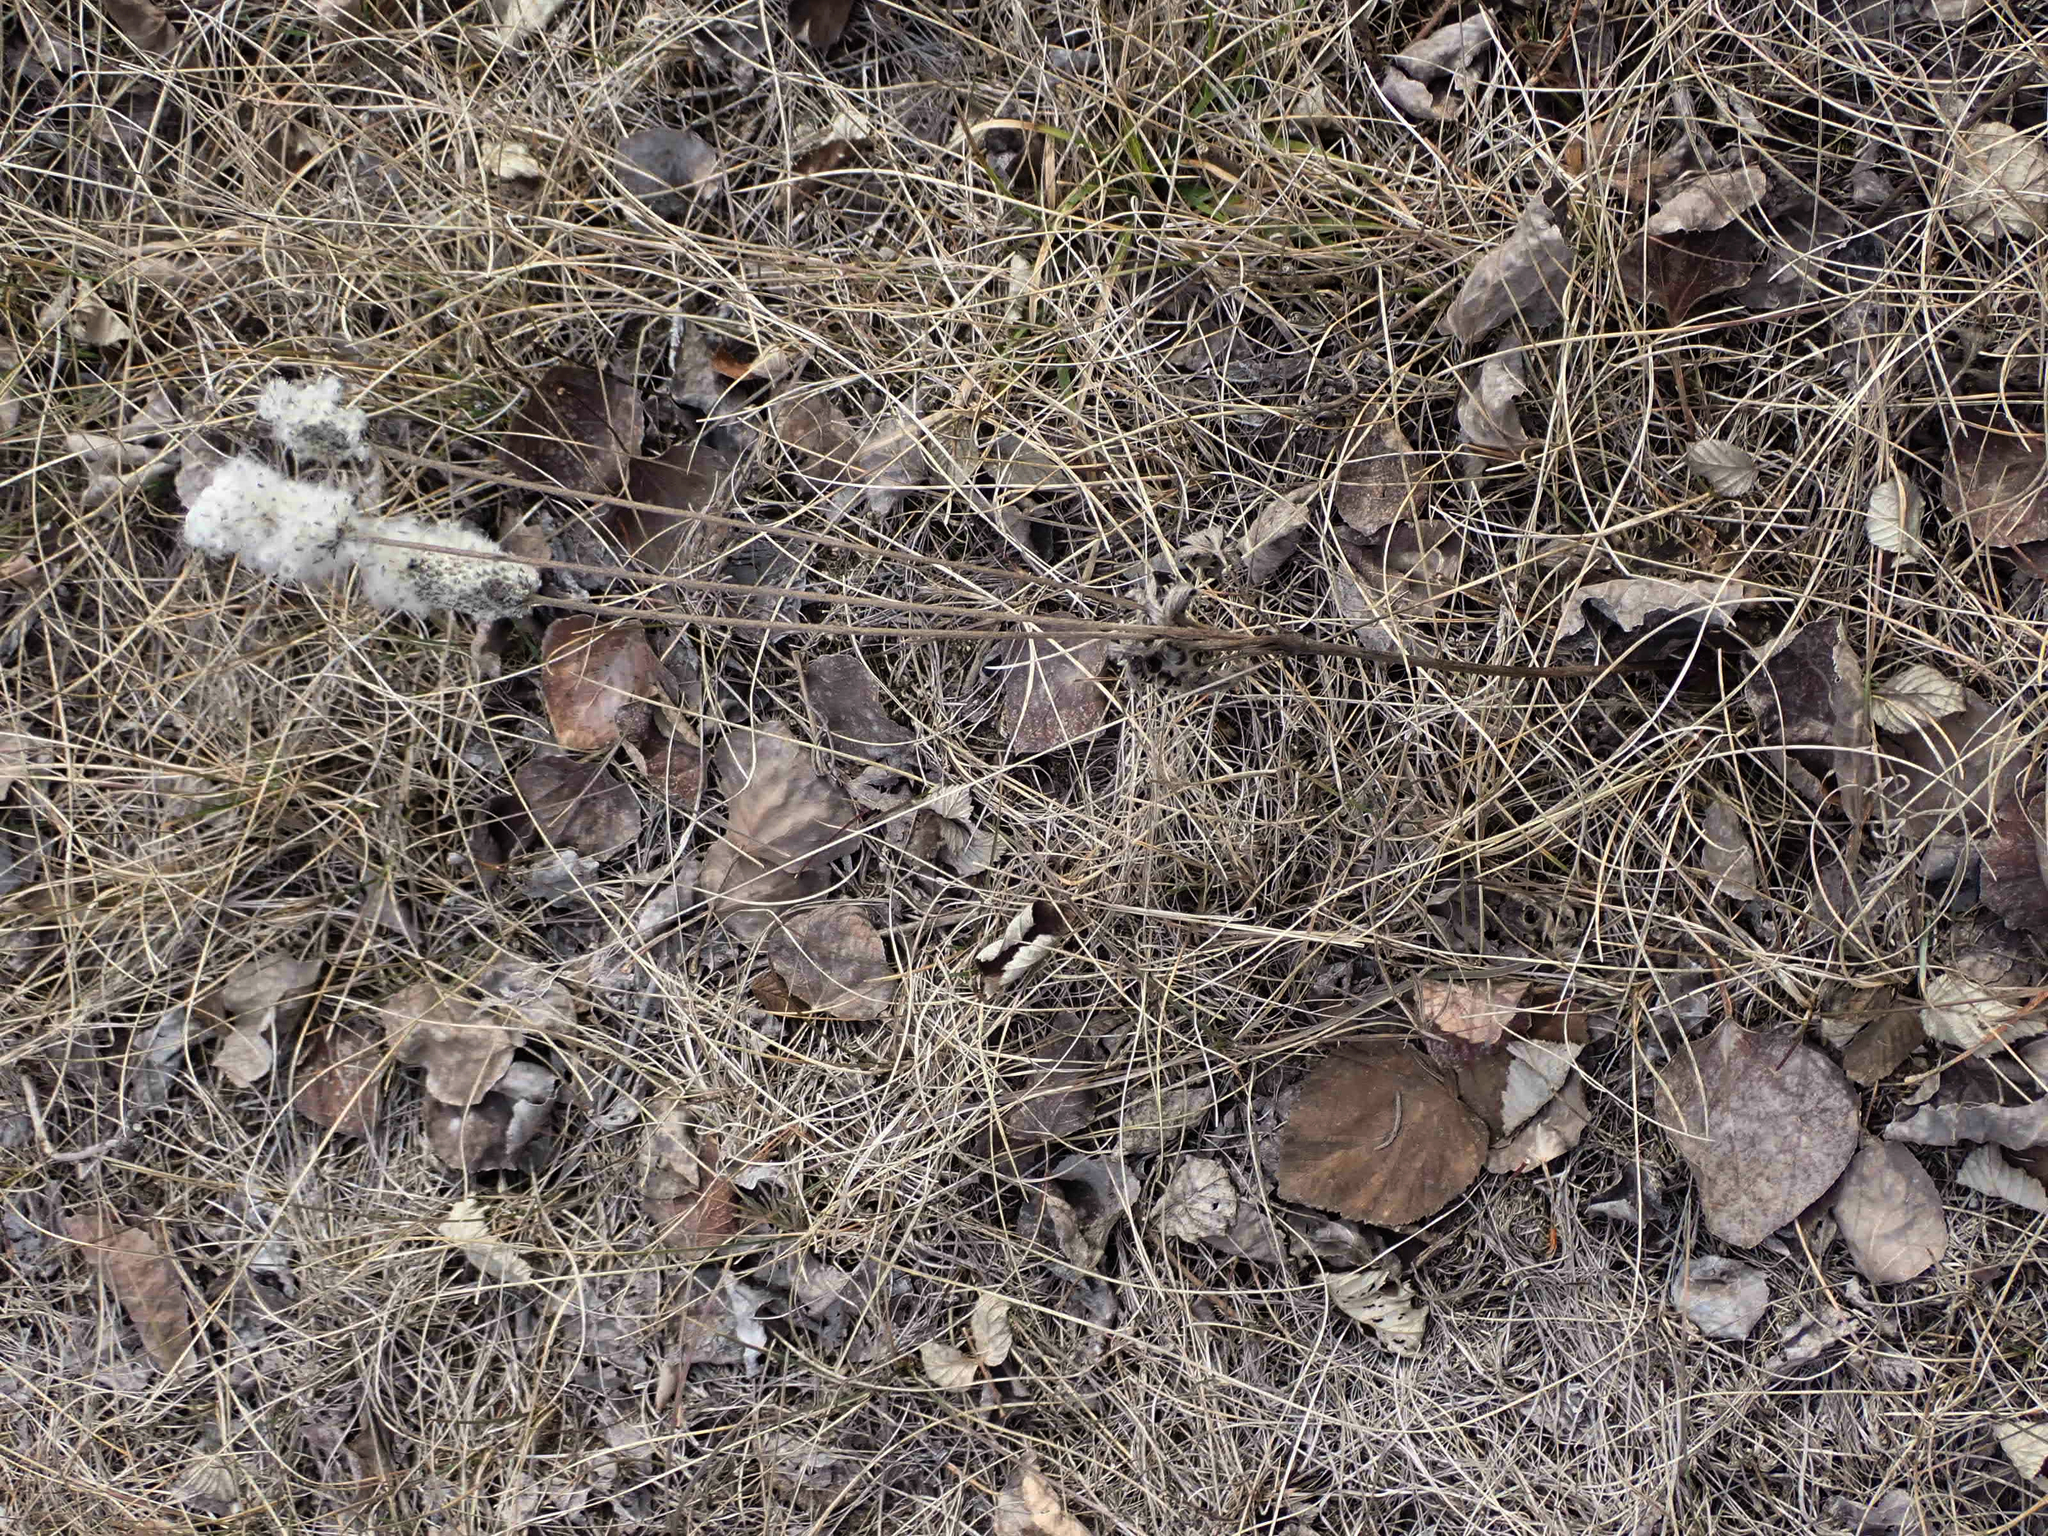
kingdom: Plantae
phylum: Tracheophyta
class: Magnoliopsida
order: Ranunculales
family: Ranunculaceae
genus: Anemone
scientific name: Anemone cylindrica
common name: Candle anemone
